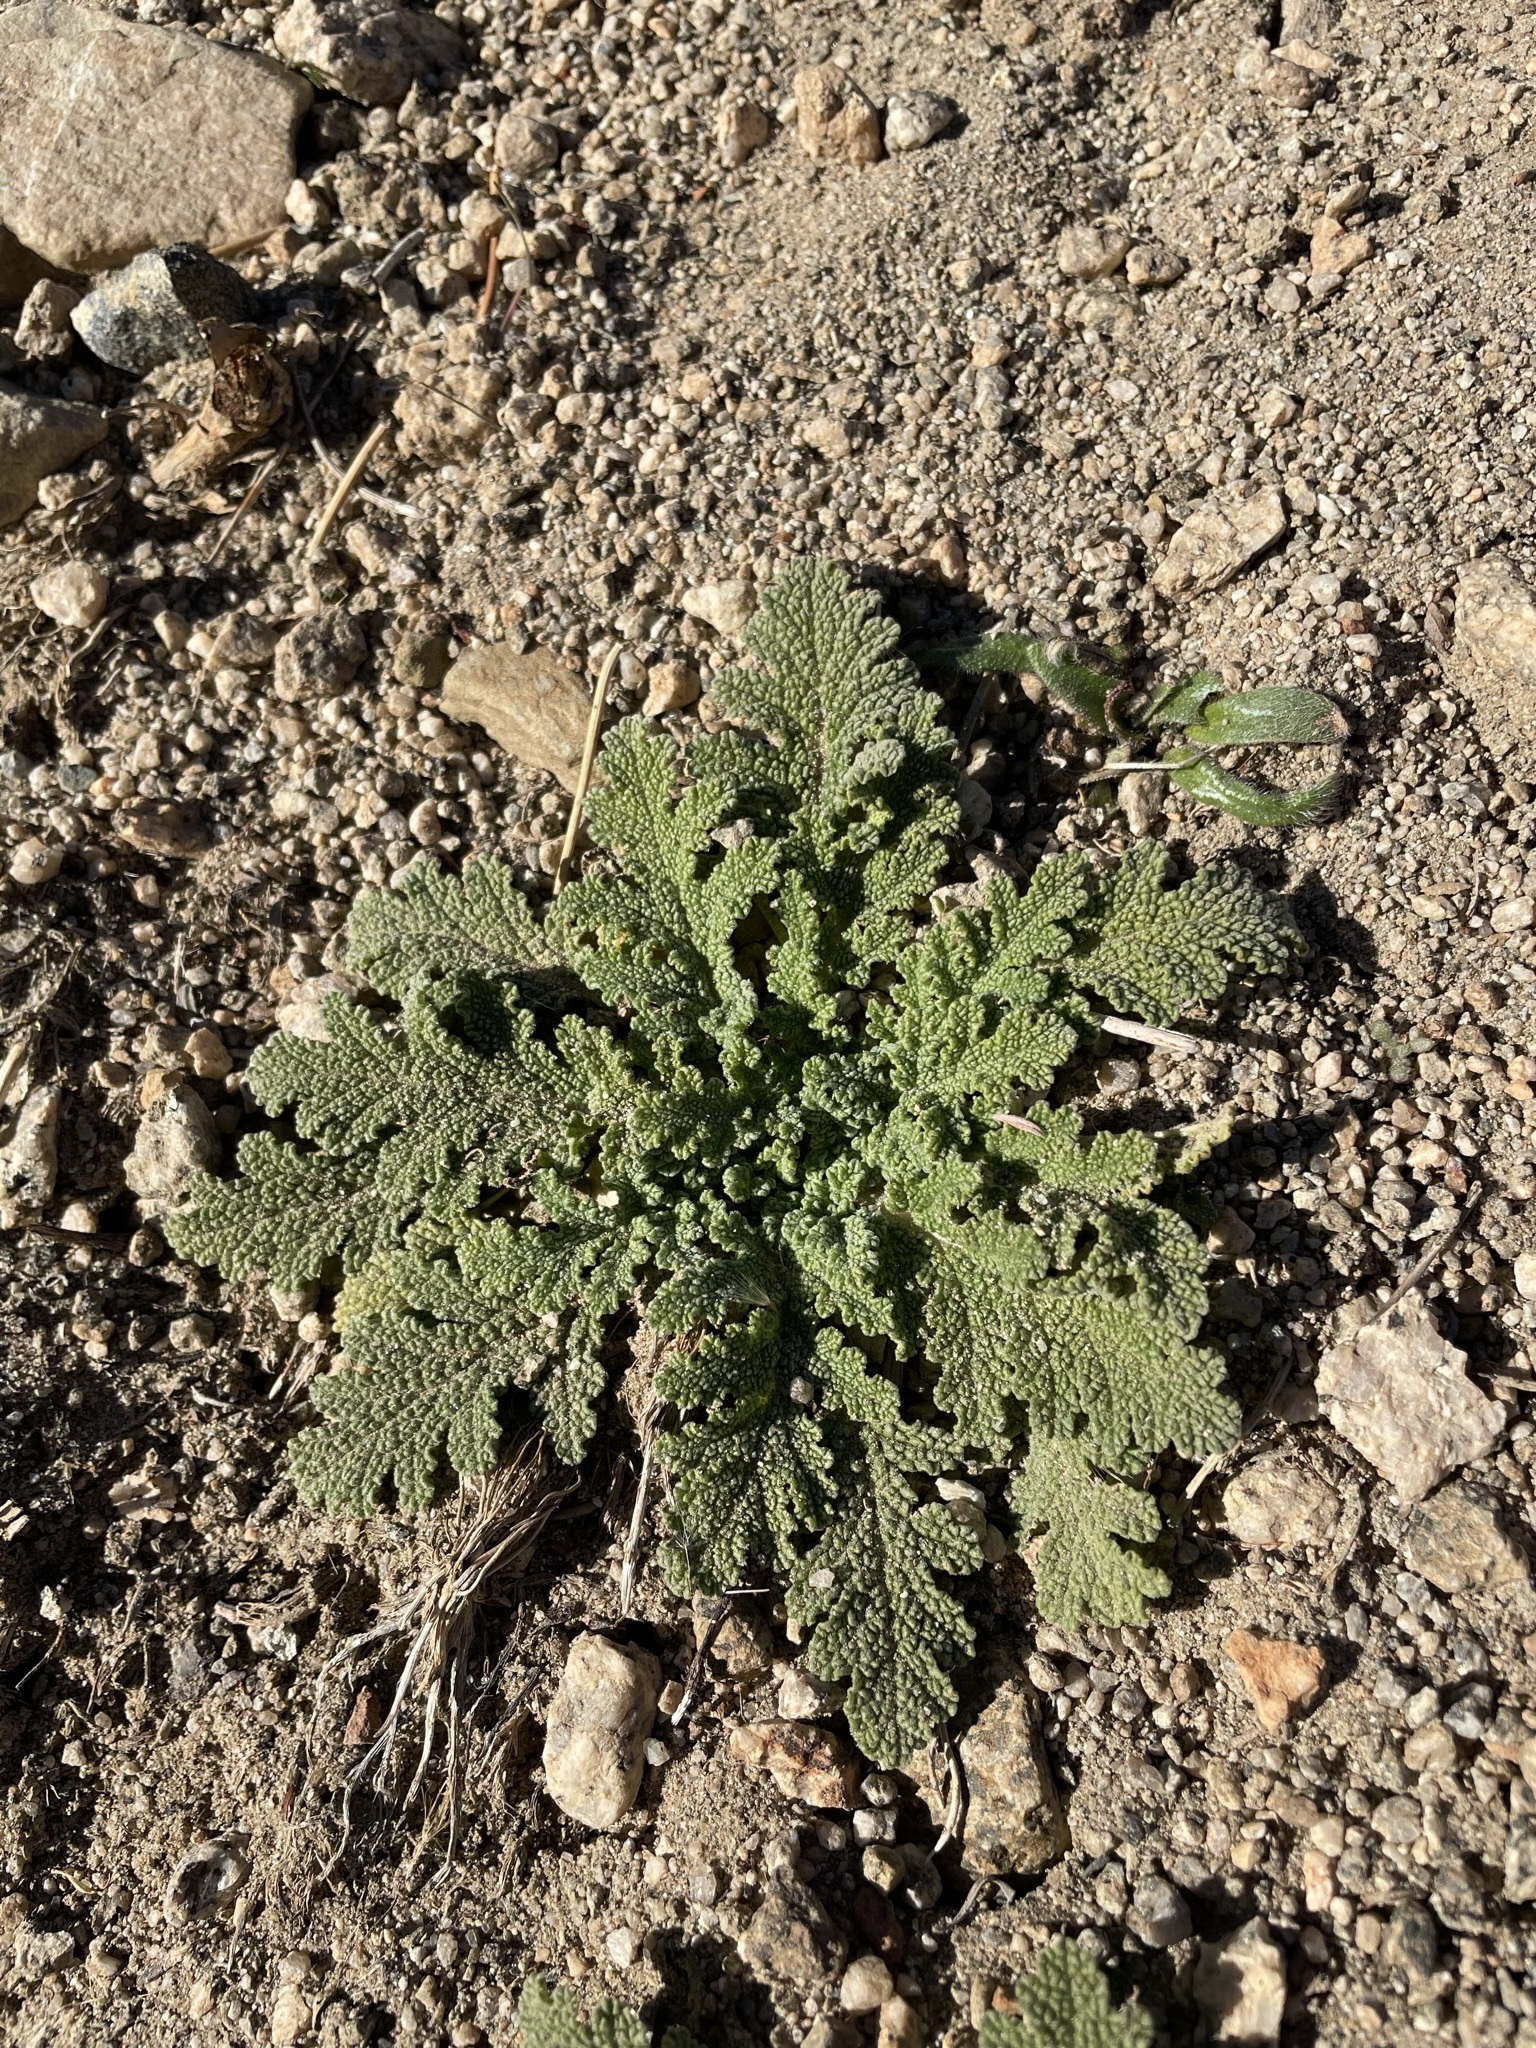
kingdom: Plantae
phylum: Tracheophyta
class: Magnoliopsida
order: Lamiales
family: Lamiaceae
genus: Salvia
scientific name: Salvia columbariae
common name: Chia
